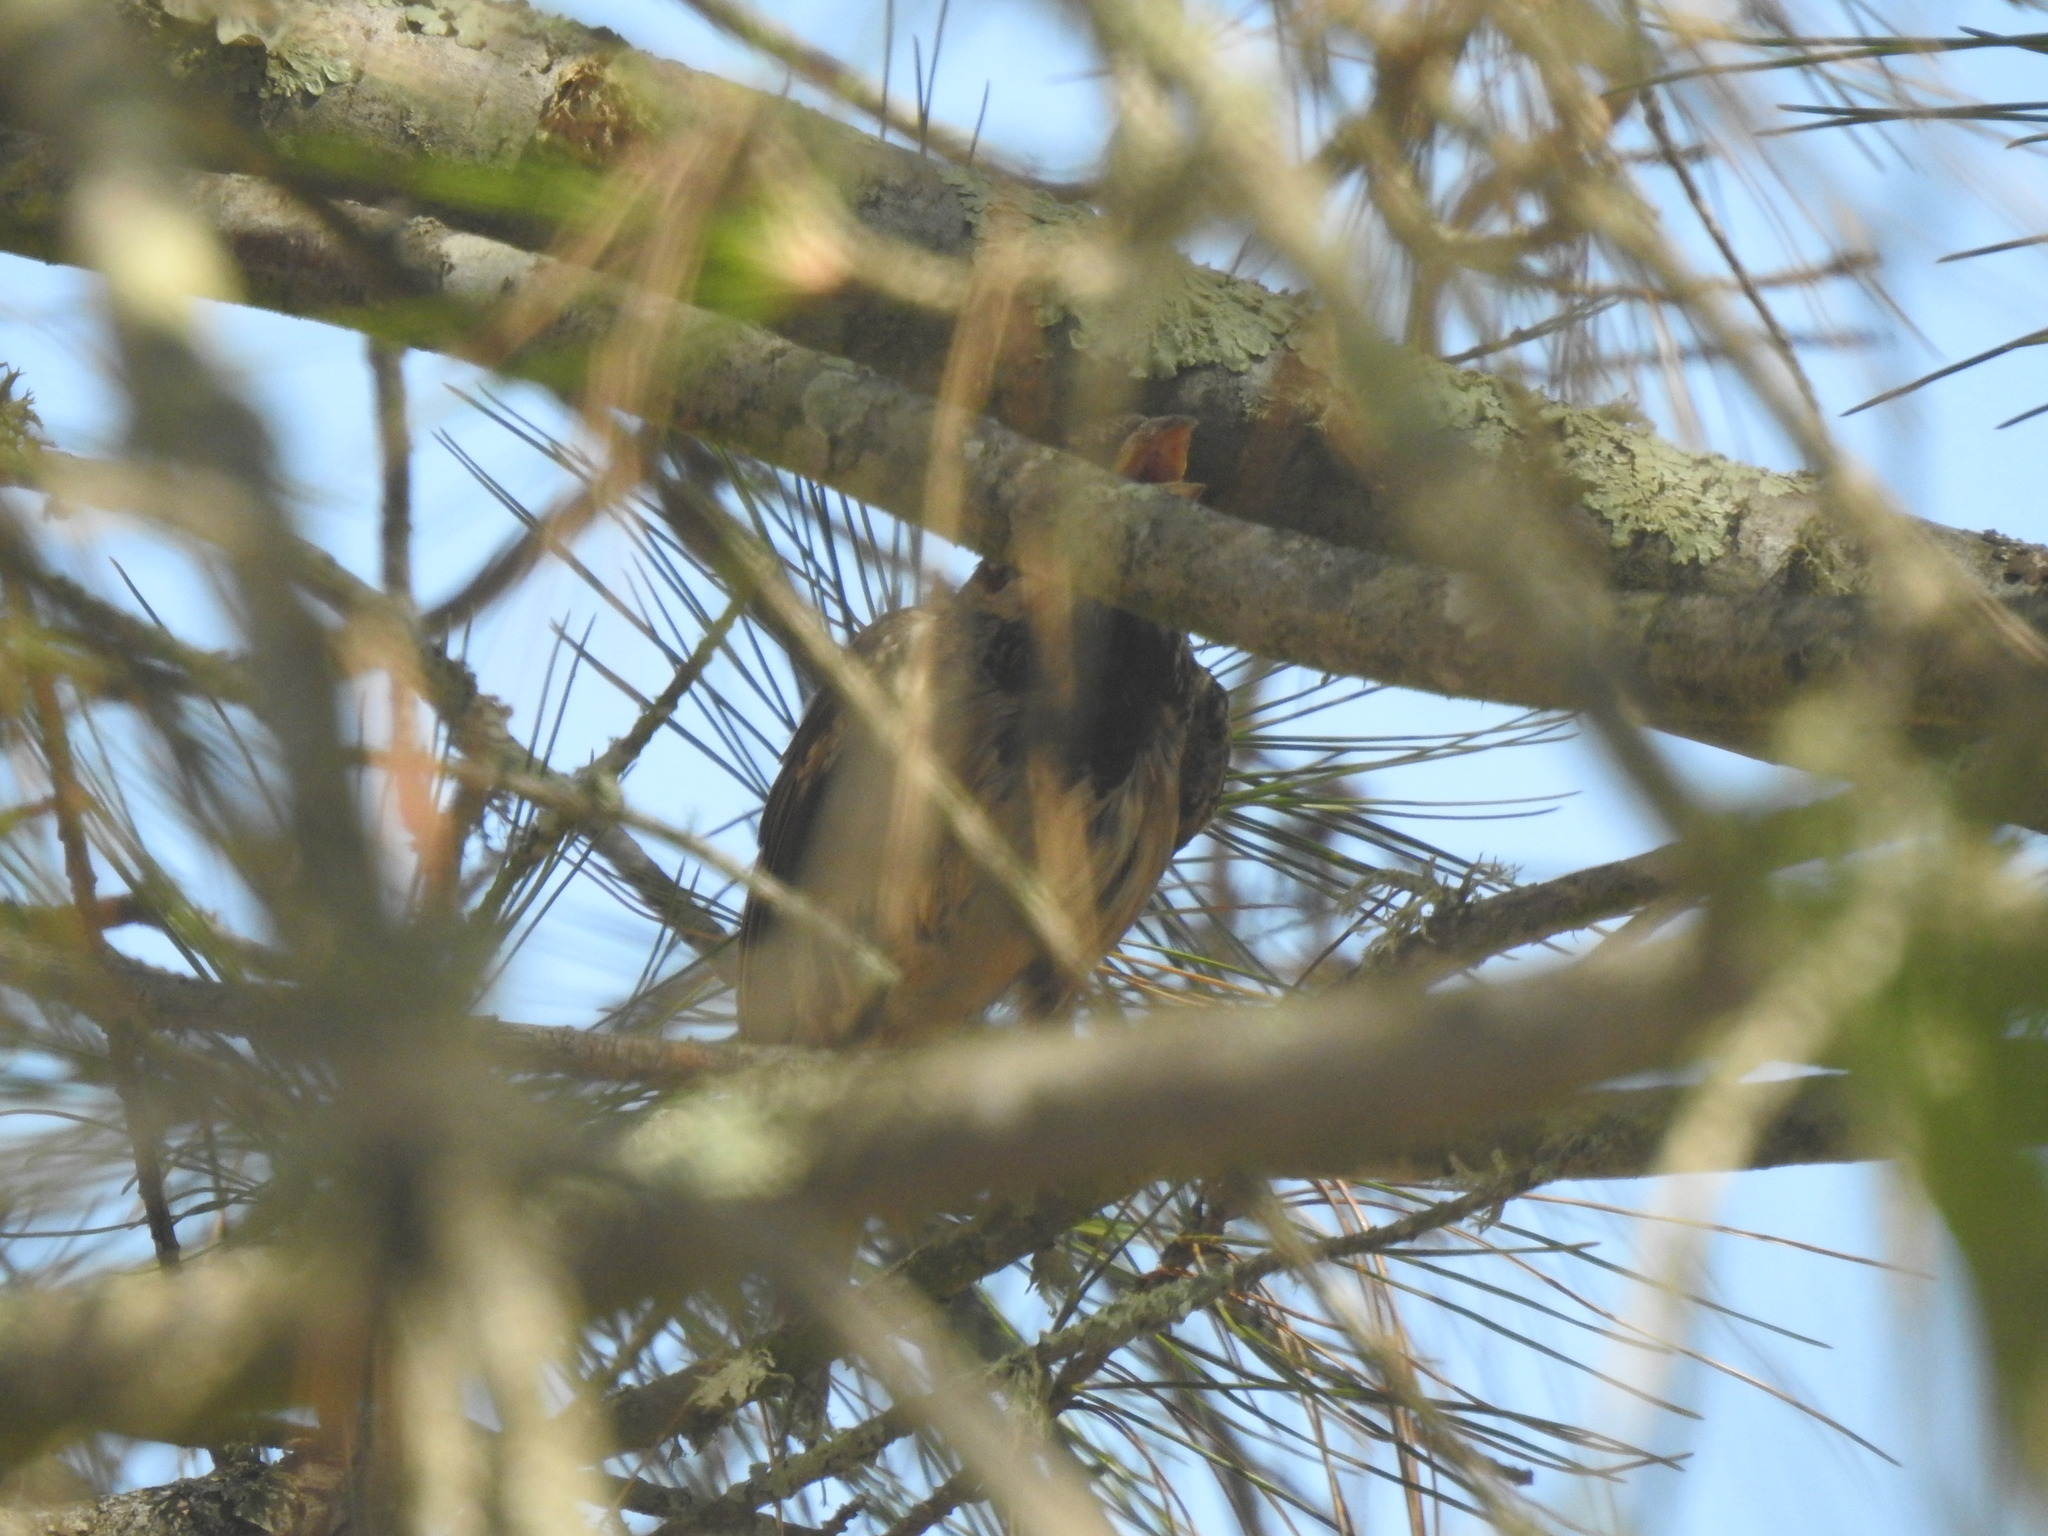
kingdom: Animalia
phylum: Chordata
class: Aves
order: Passeriformes
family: Passeridae
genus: Passer
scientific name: Passer domesticus
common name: House sparrow
